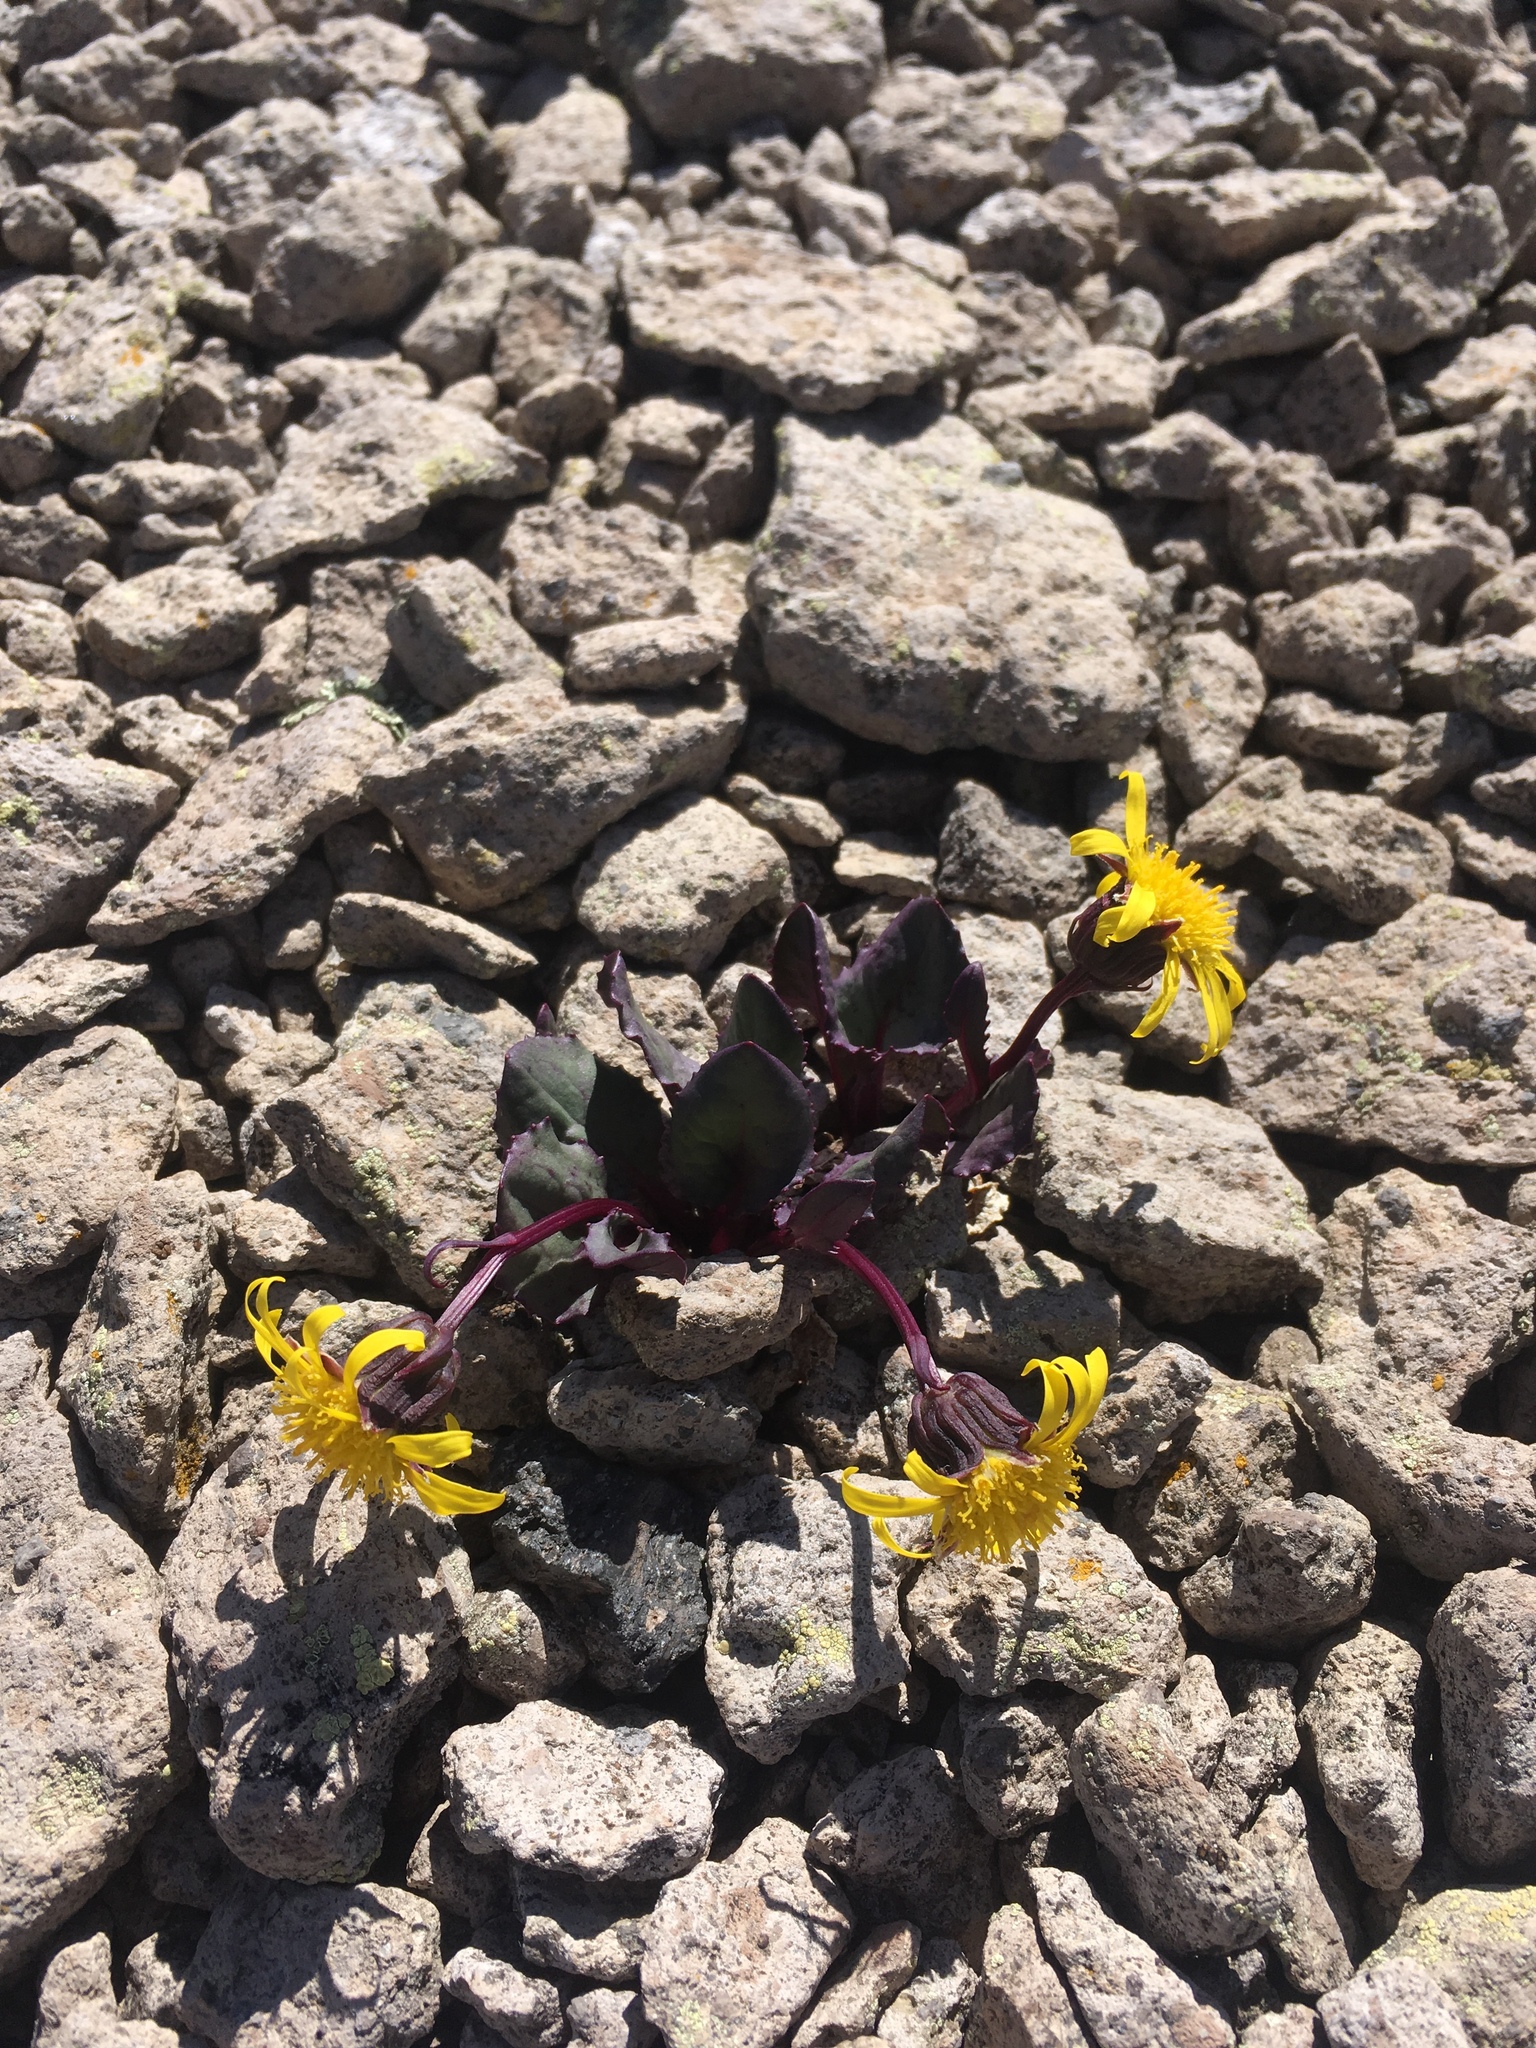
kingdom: Plantae
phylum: Tracheophyta
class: Magnoliopsida
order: Asterales
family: Asteraceae
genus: Senecio
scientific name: Senecio soldanella
